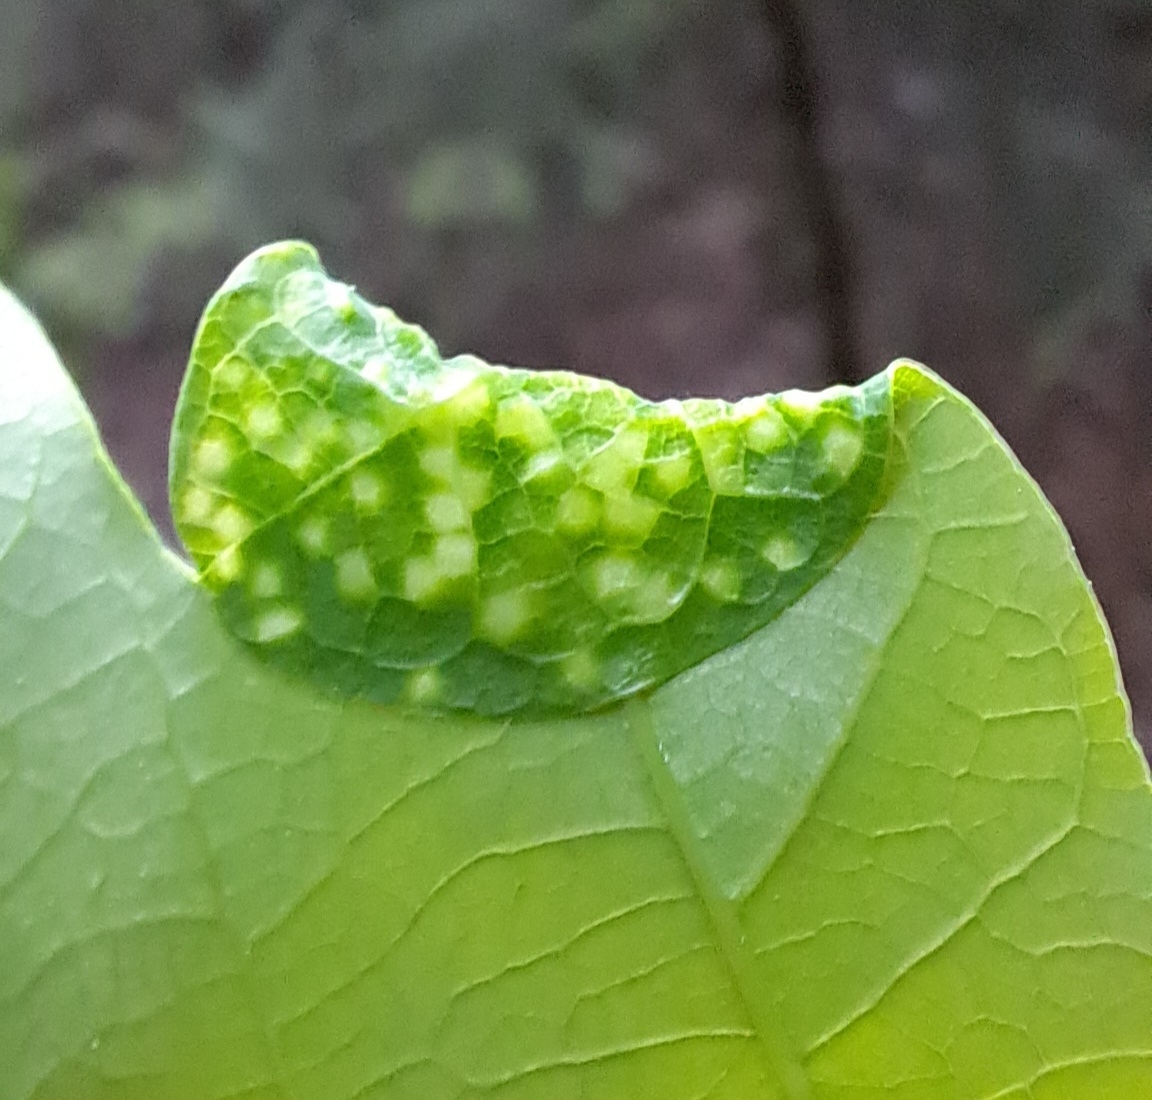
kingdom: Animalia
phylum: Arthropoda
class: Insecta
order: Diptera
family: Cecidomyiidae
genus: Macrodiplosis
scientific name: Macrodiplosis pustularis
